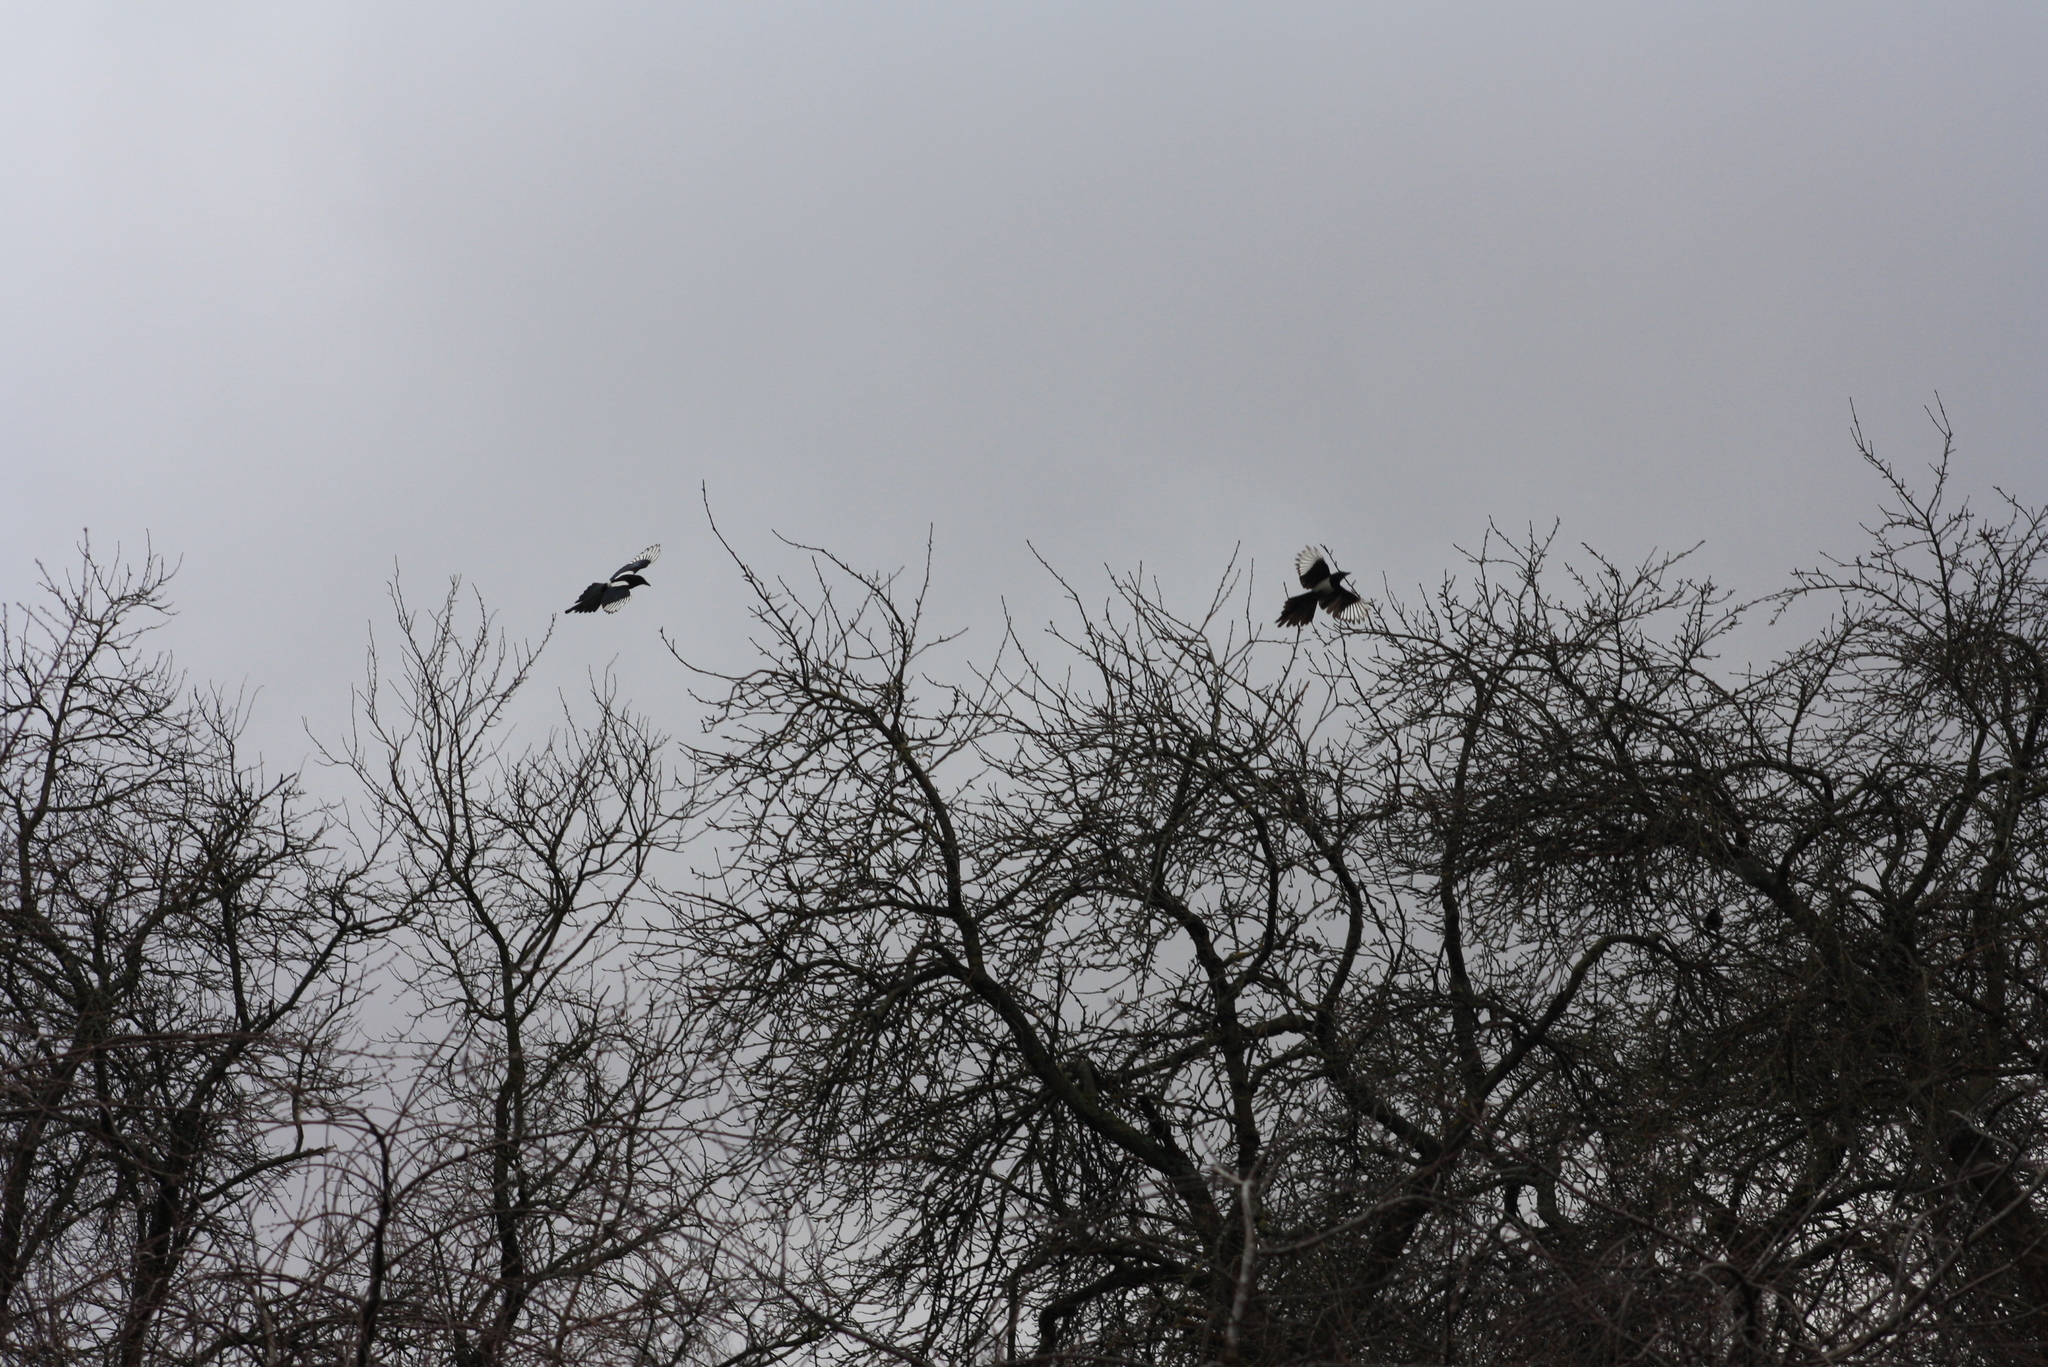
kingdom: Animalia
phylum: Chordata
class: Aves
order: Passeriformes
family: Corvidae
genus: Pica
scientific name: Pica pica
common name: Eurasian magpie
